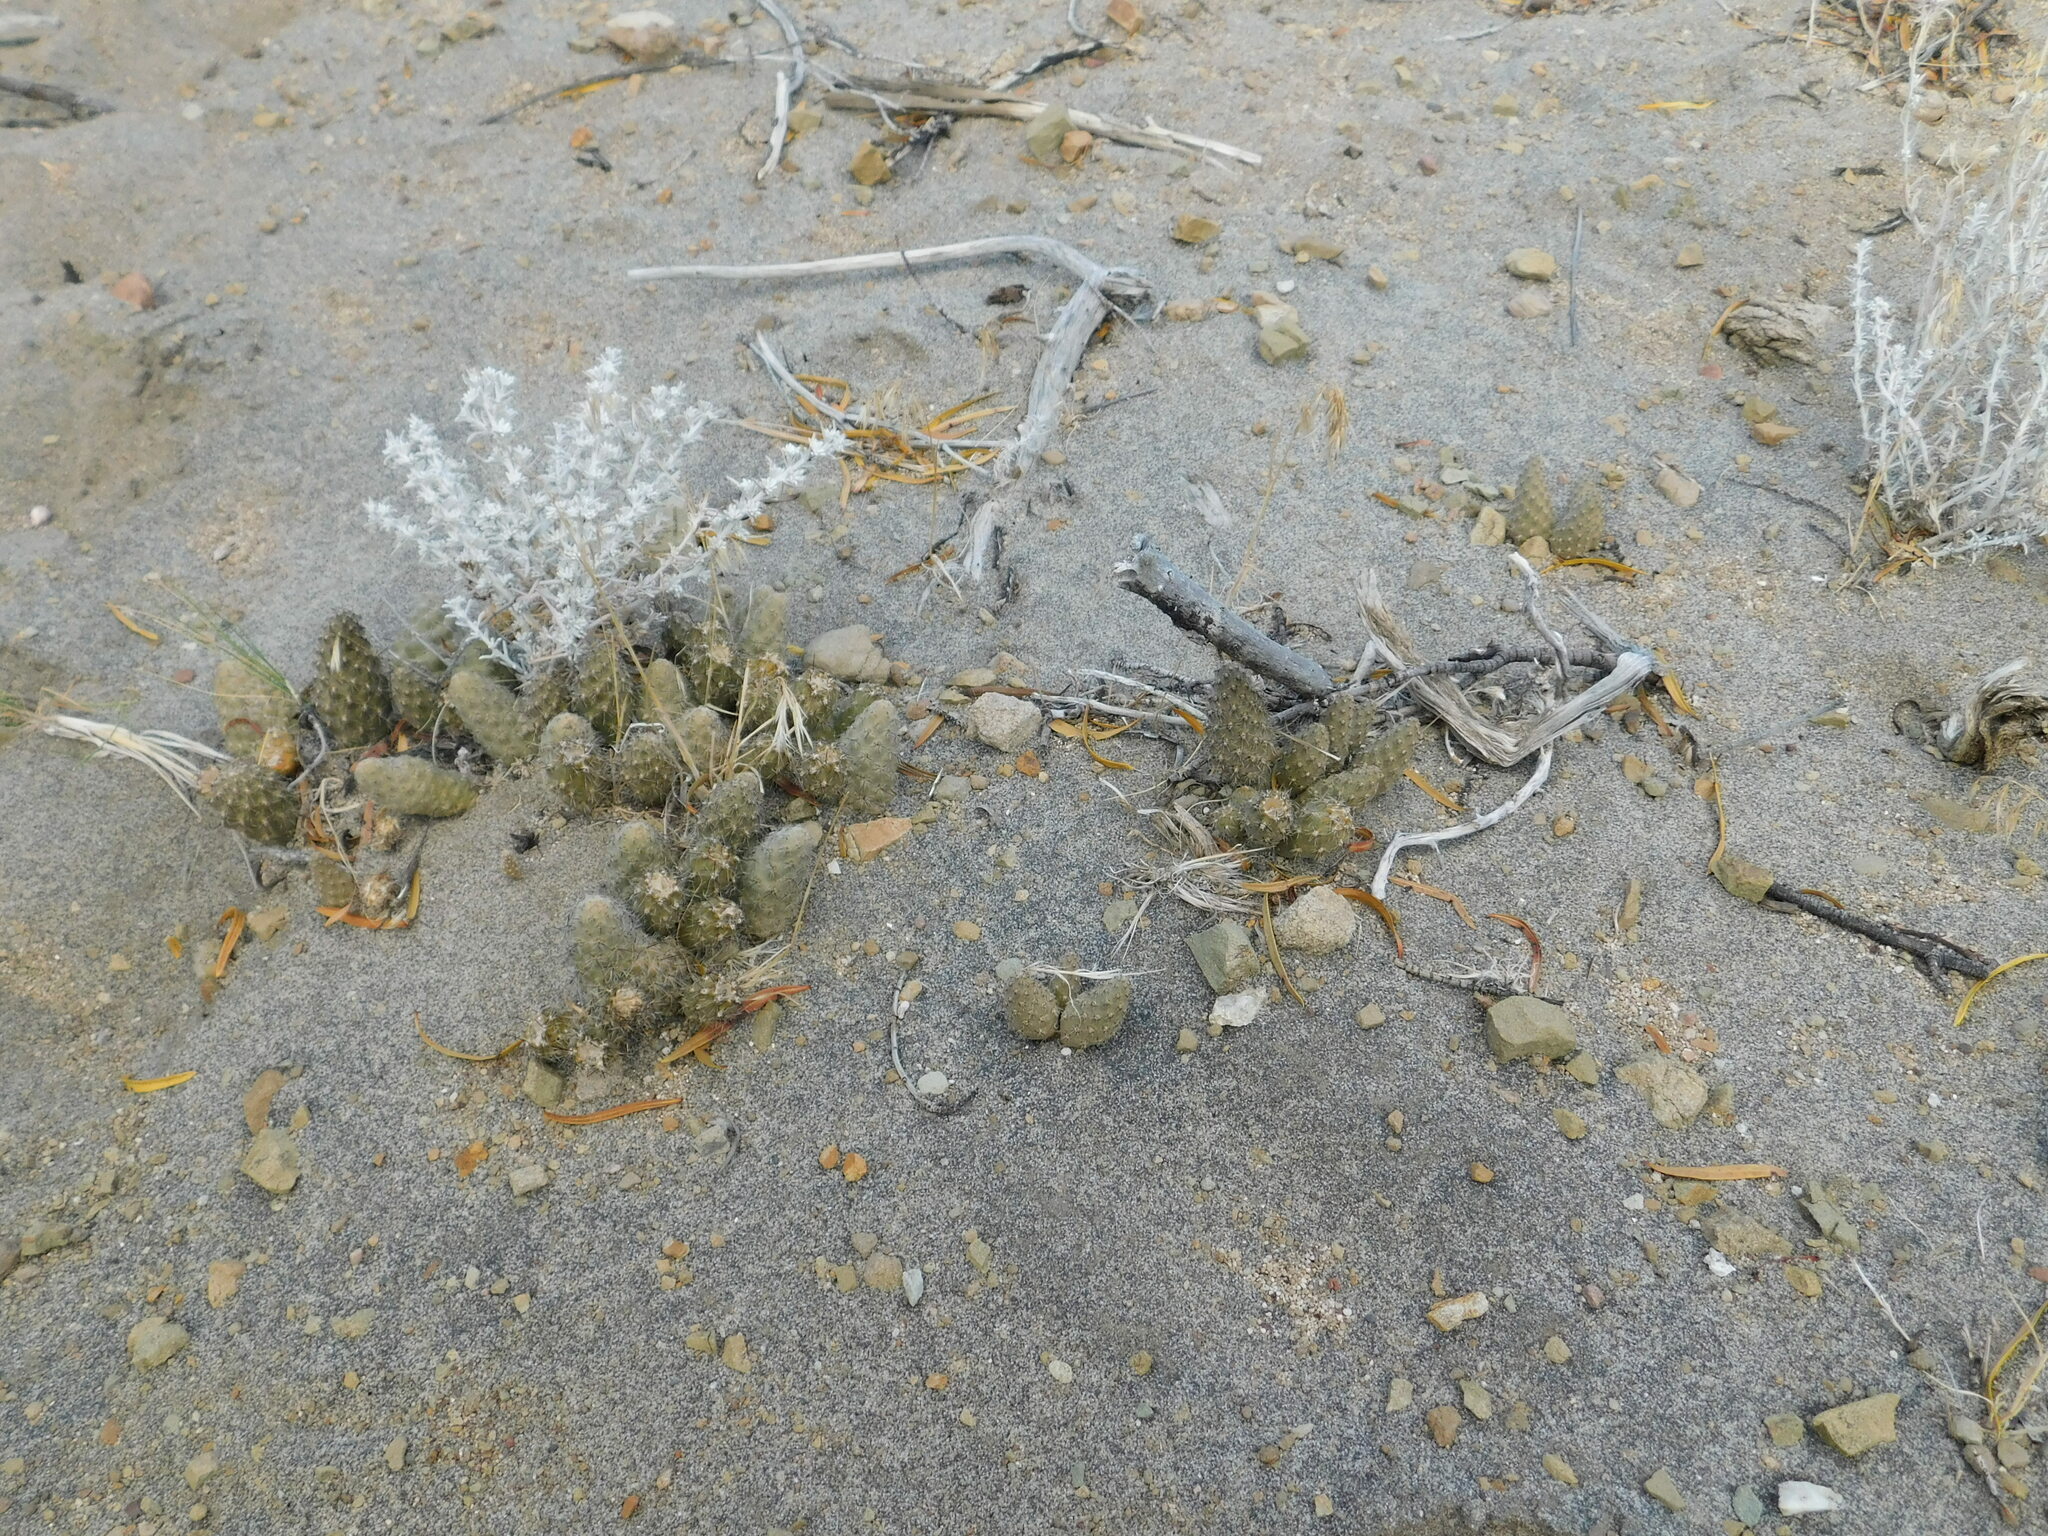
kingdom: Plantae
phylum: Tracheophyta
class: Magnoliopsida
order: Caryophyllales
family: Cactaceae
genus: Pterocactus
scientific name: Pterocactus neuquensis
